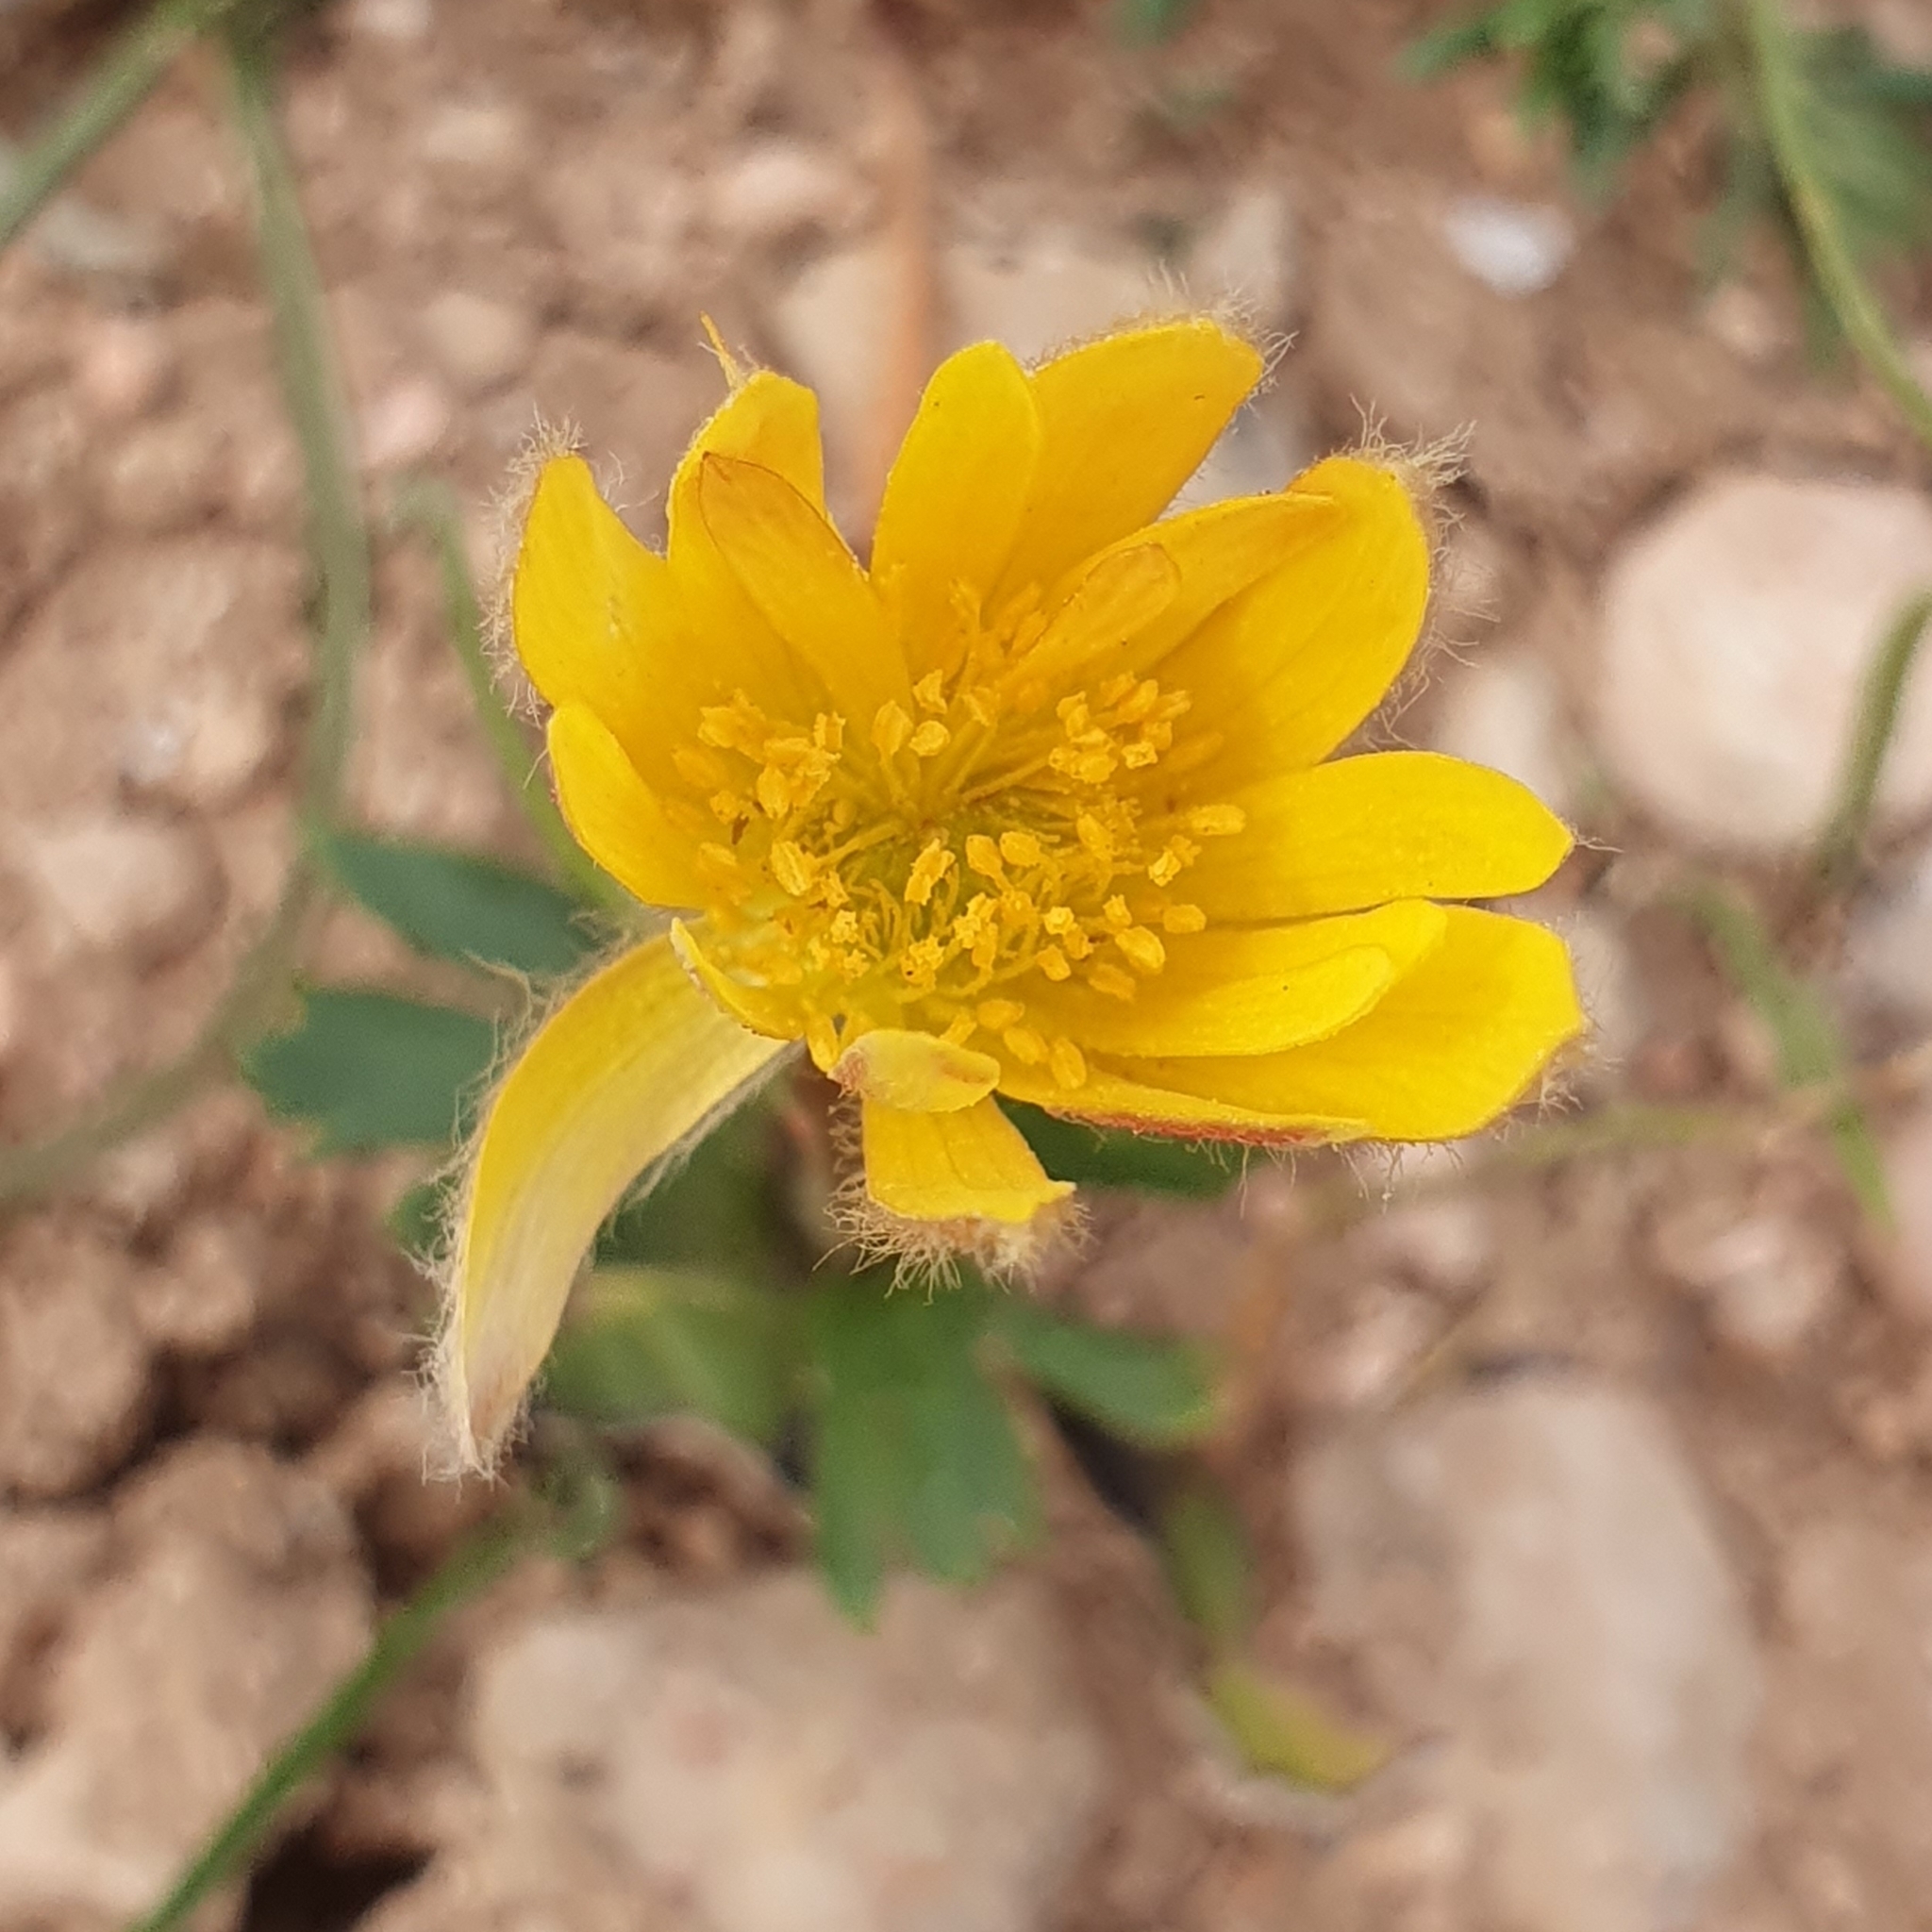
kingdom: Plantae
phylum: Tracheophyta
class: Magnoliopsida
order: Ranunculales
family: Ranunculaceae
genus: Anemone
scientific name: Anemone palmata
